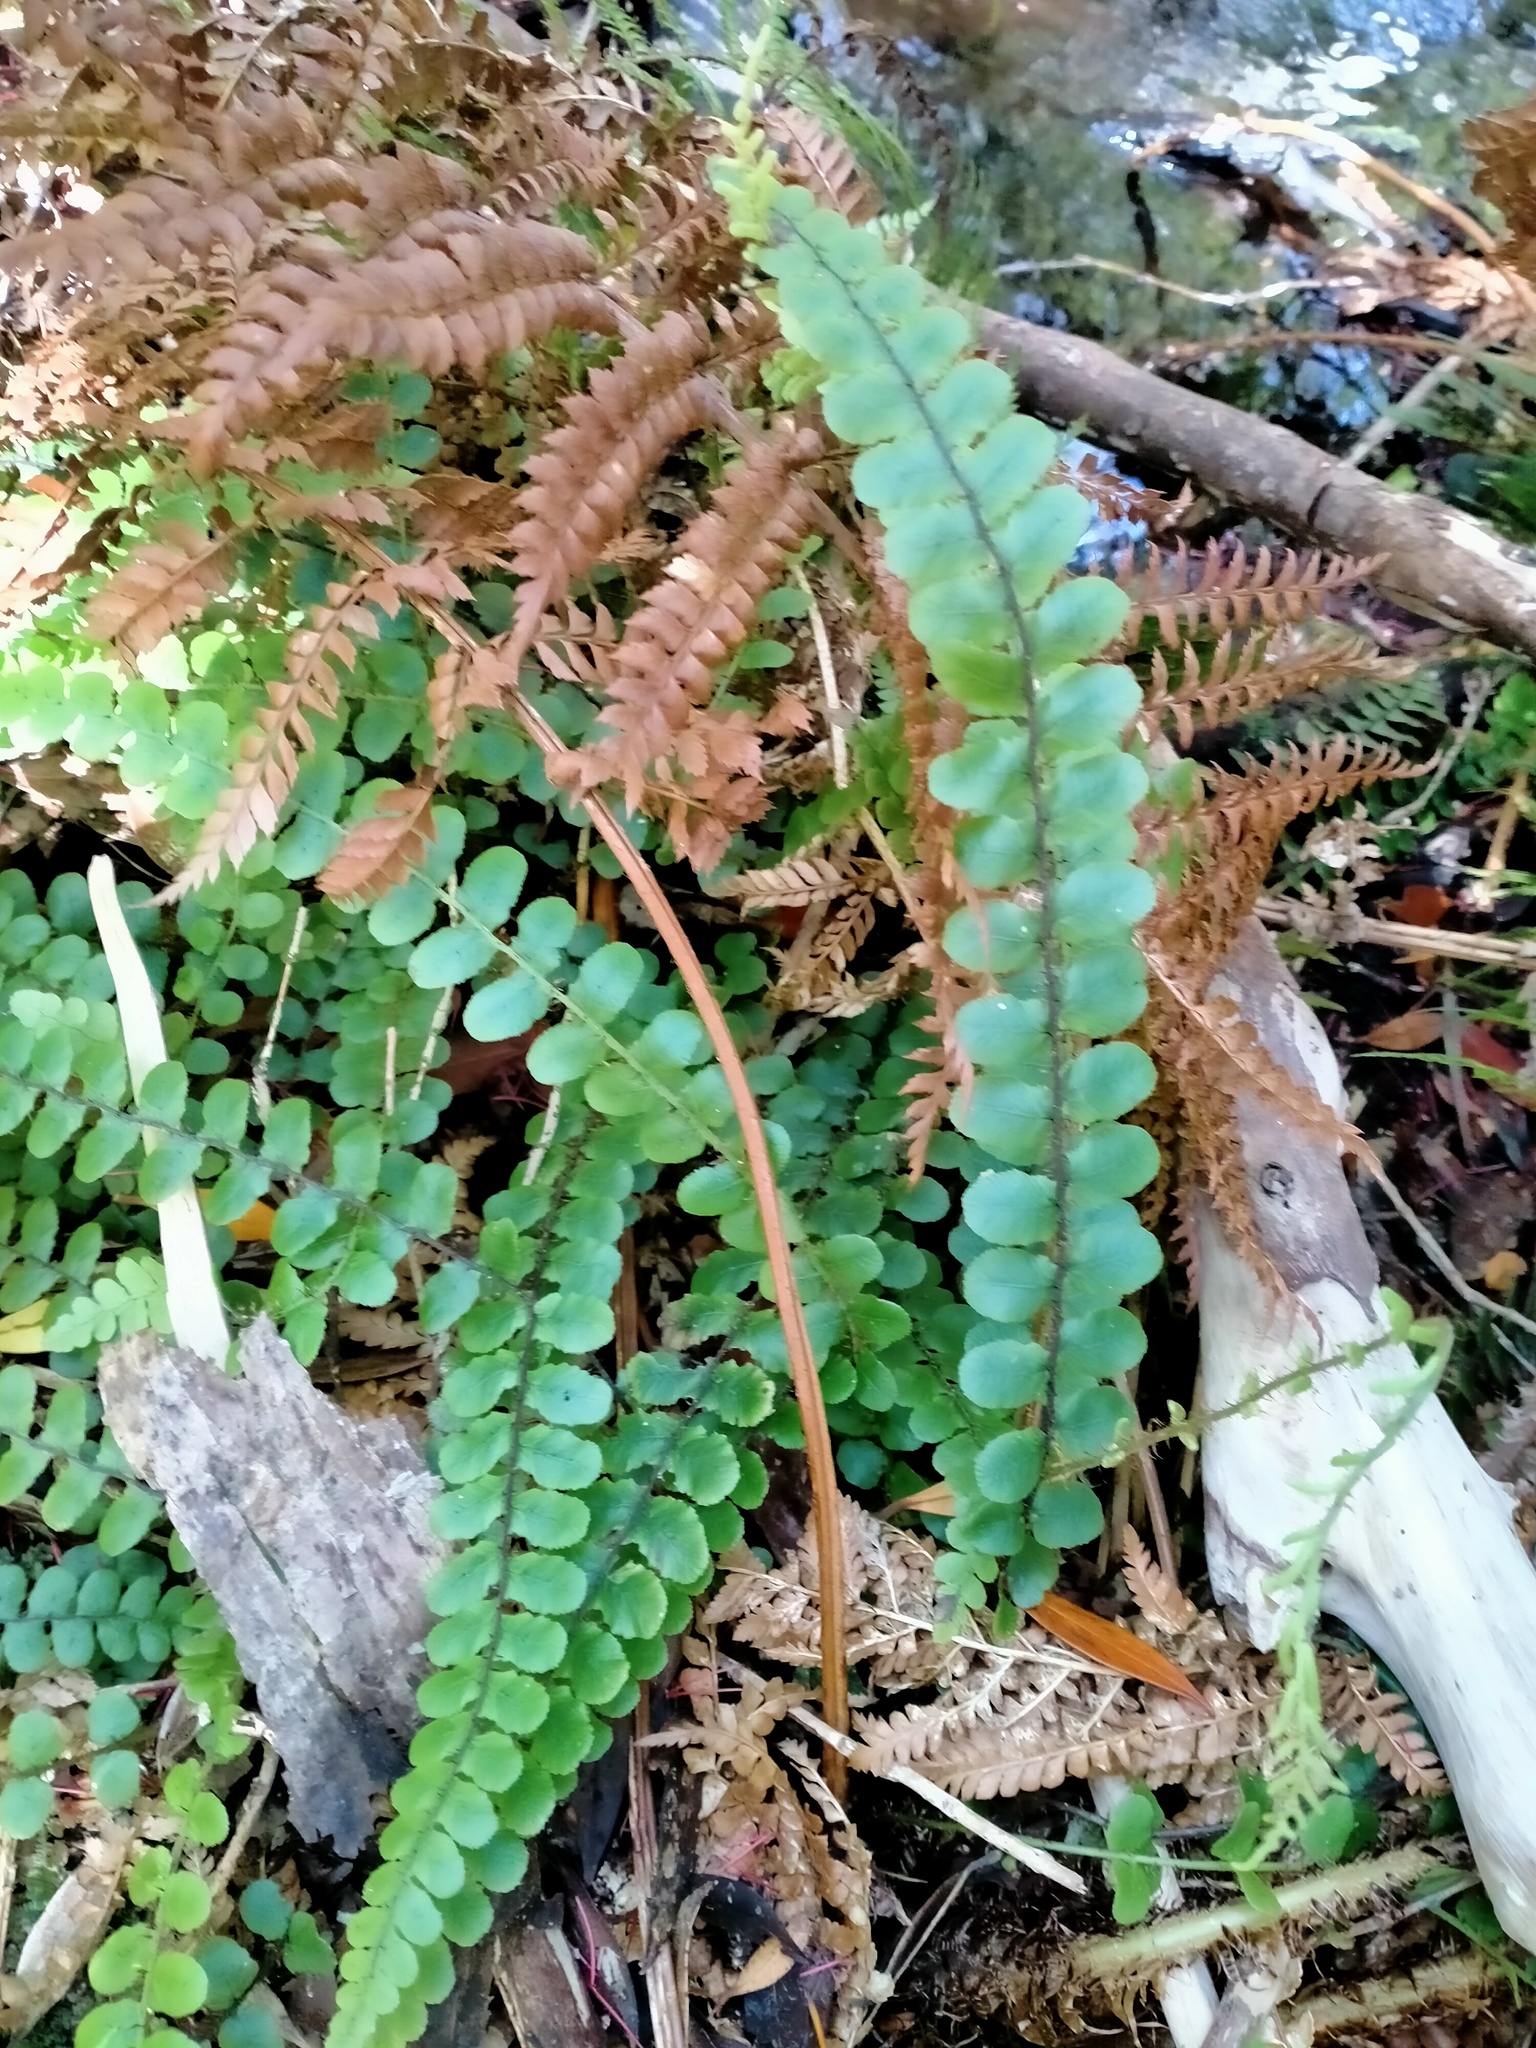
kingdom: Plantae
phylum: Tracheophyta
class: Polypodiopsida
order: Polypodiales
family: Blechnaceae
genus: Cranfillia
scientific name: Cranfillia fluviatilis
